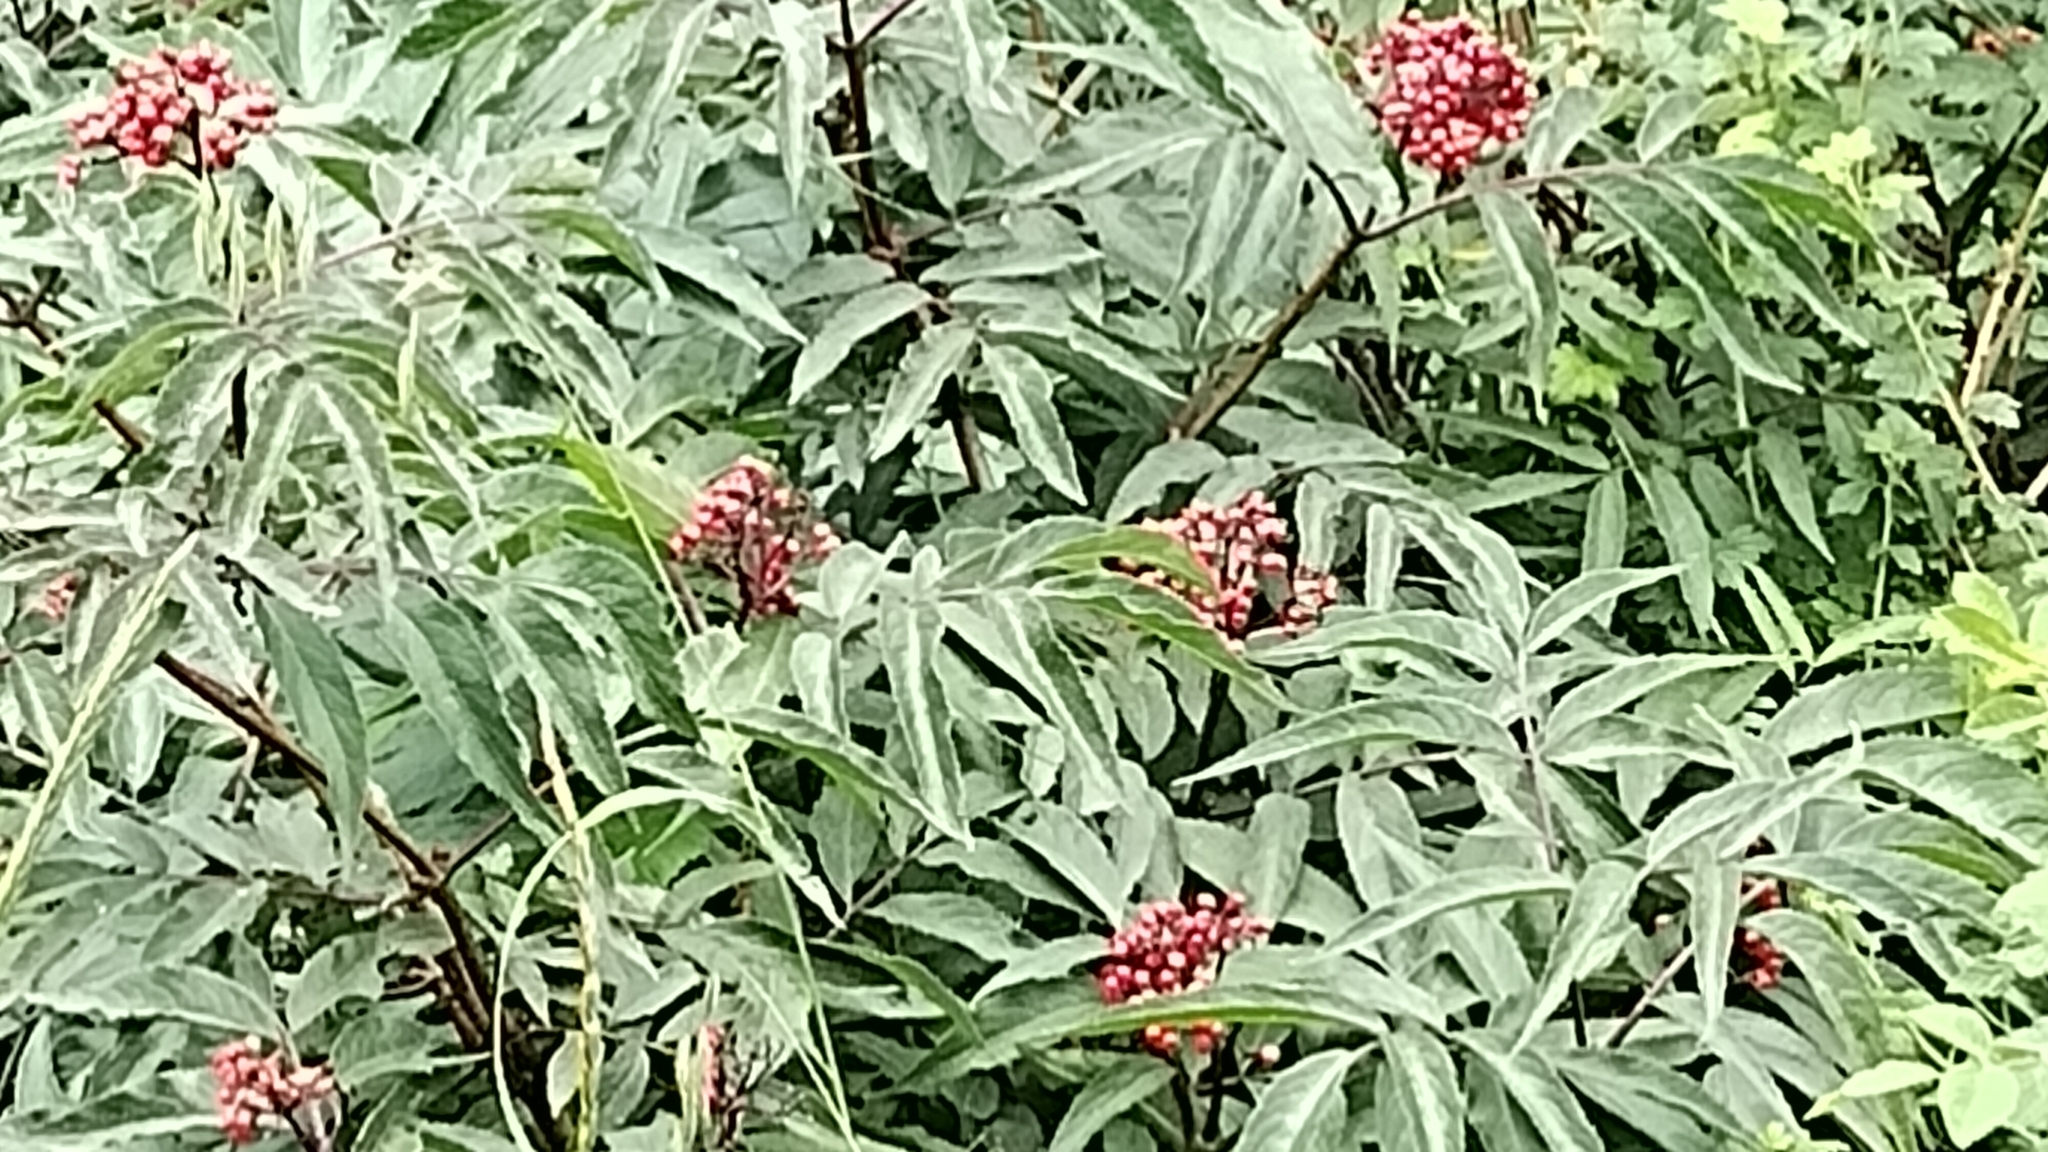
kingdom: Plantae
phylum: Tracheophyta
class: Magnoliopsida
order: Dipsacales
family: Viburnaceae
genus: Sambucus
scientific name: Sambucus racemosa
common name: Red-berried elder
